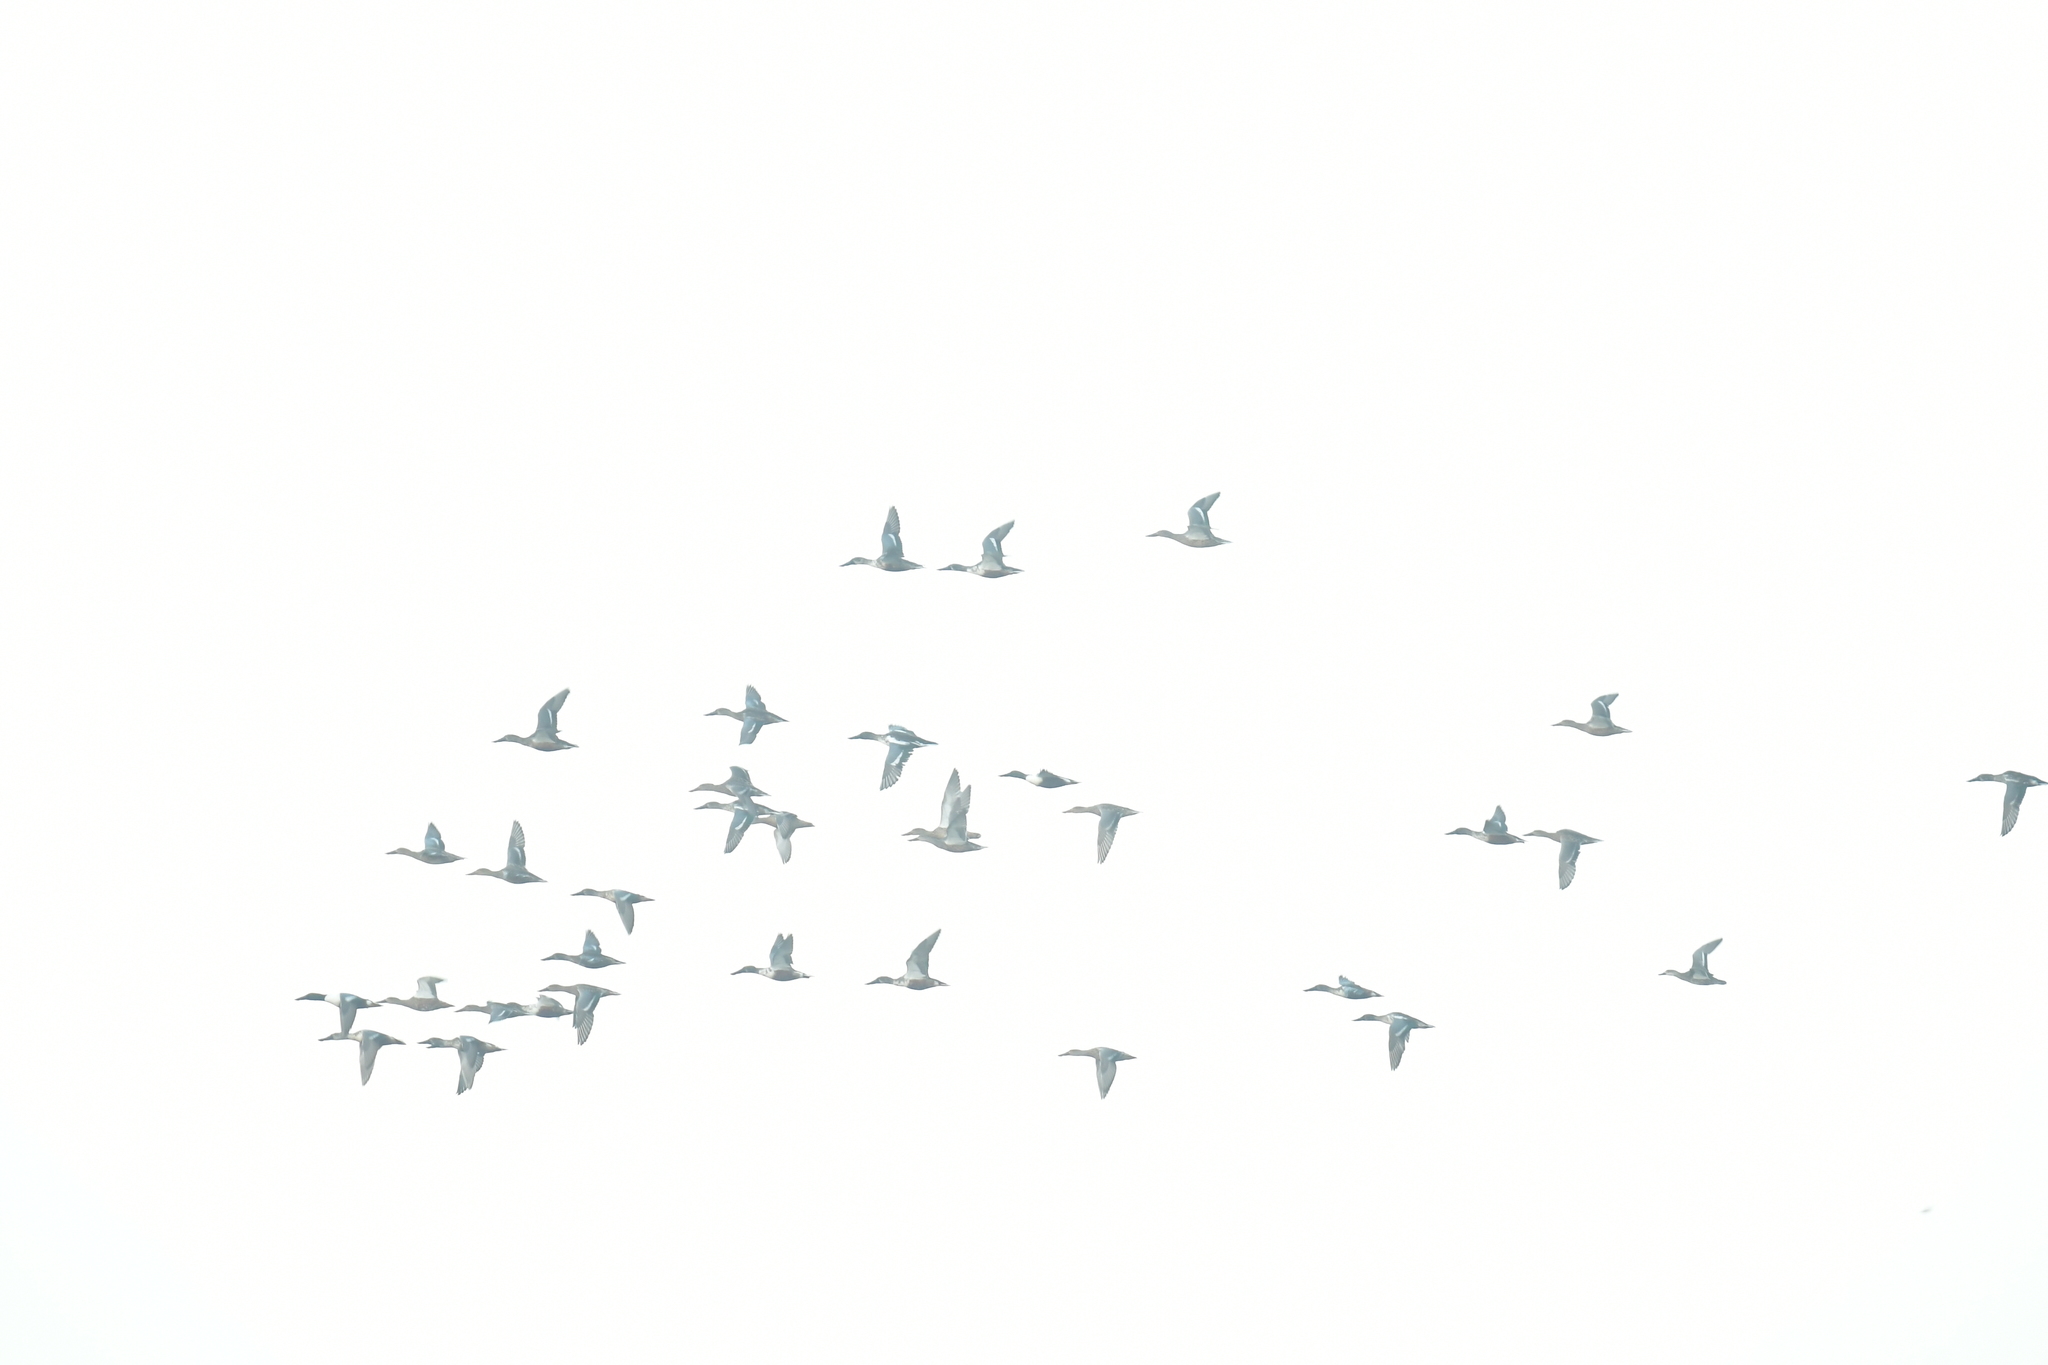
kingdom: Animalia
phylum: Chordata
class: Aves
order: Anseriformes
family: Anatidae
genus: Spatula
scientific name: Spatula clypeata
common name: Northern shoveler
